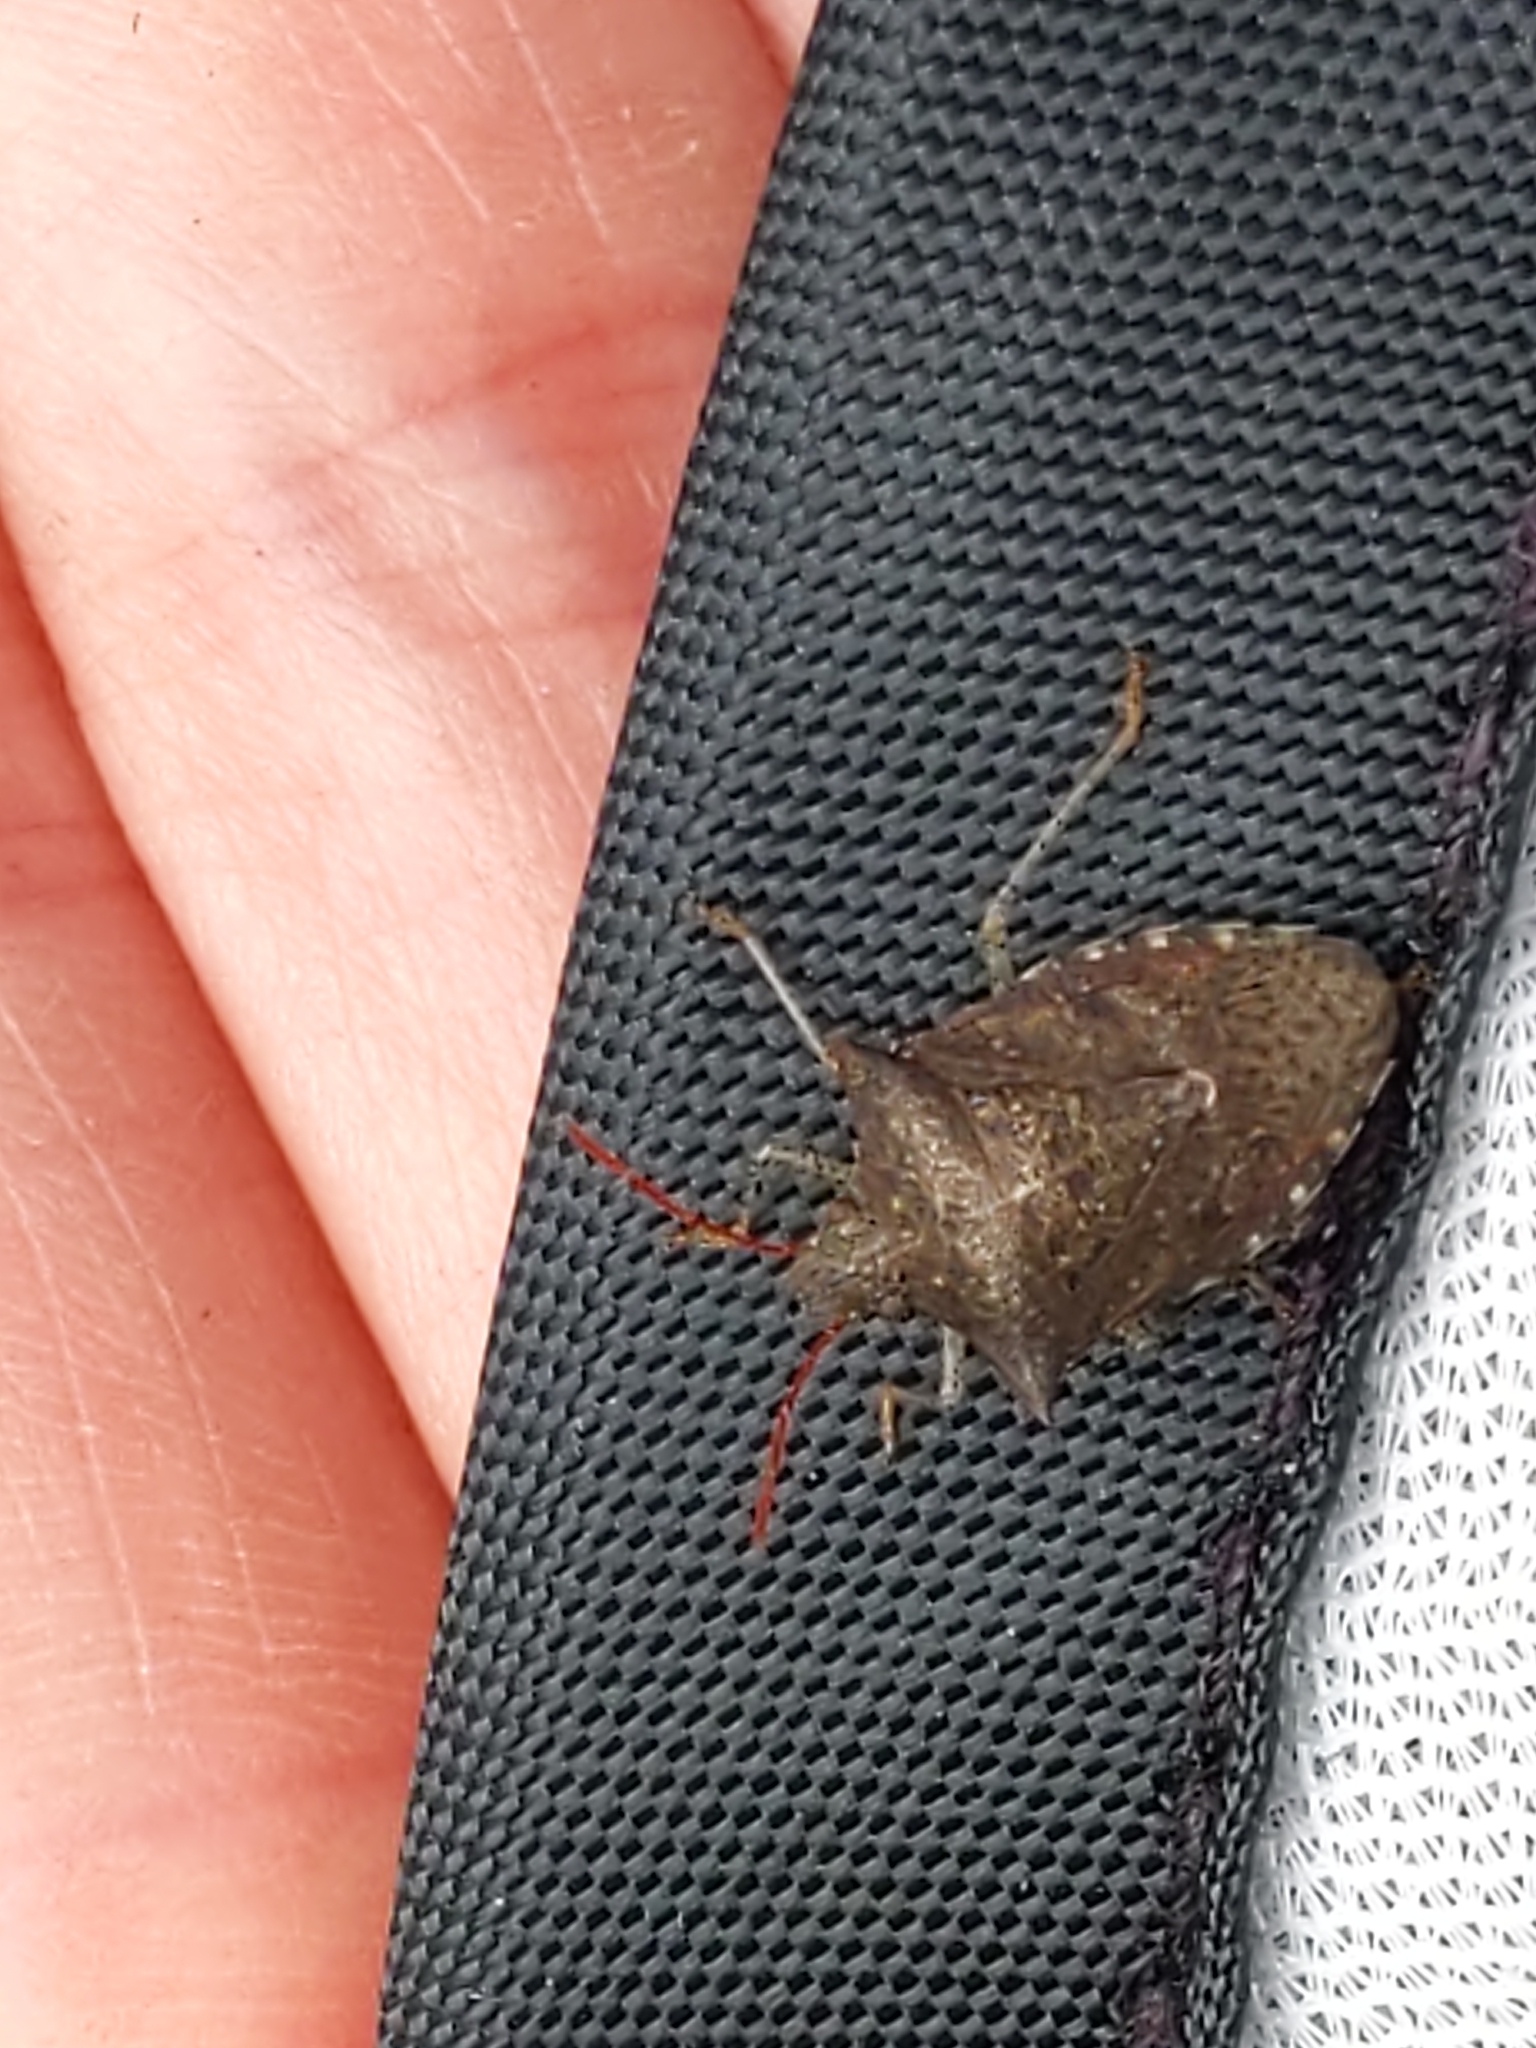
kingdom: Animalia
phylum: Arthropoda
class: Insecta
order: Hemiptera
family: Pentatomidae
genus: Euschistus
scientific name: Euschistus tristigmus
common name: Dusky stink bug
